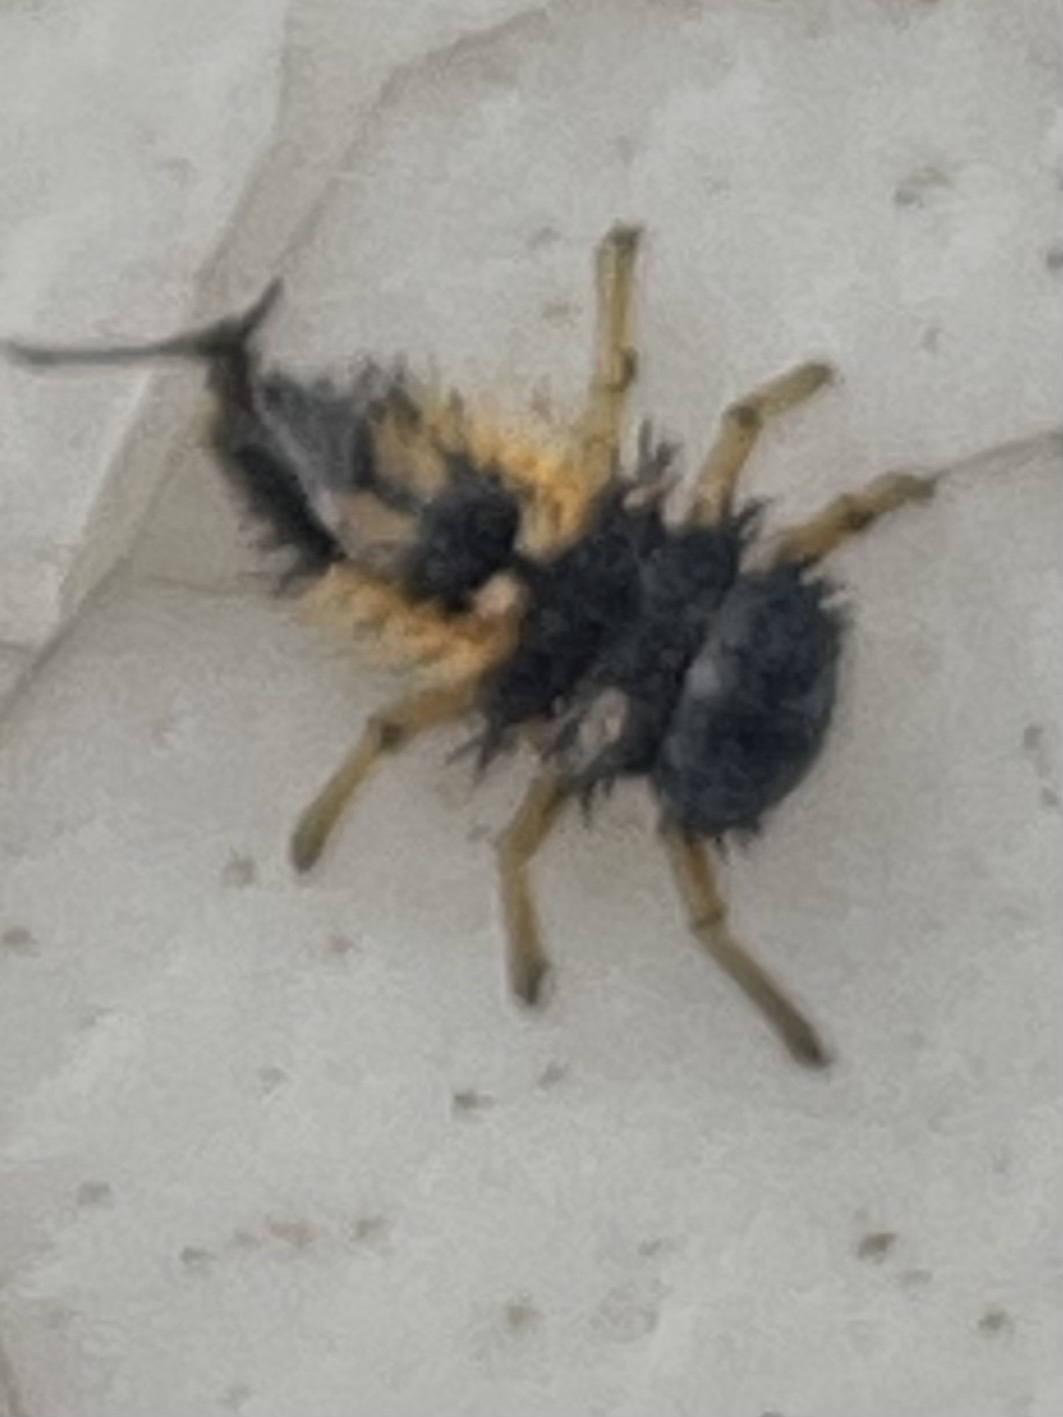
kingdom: Animalia
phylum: Arthropoda
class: Insecta
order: Coleoptera
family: Coccinellidae
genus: Harmonia
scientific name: Harmonia axyridis
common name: Harlequin ladybird
